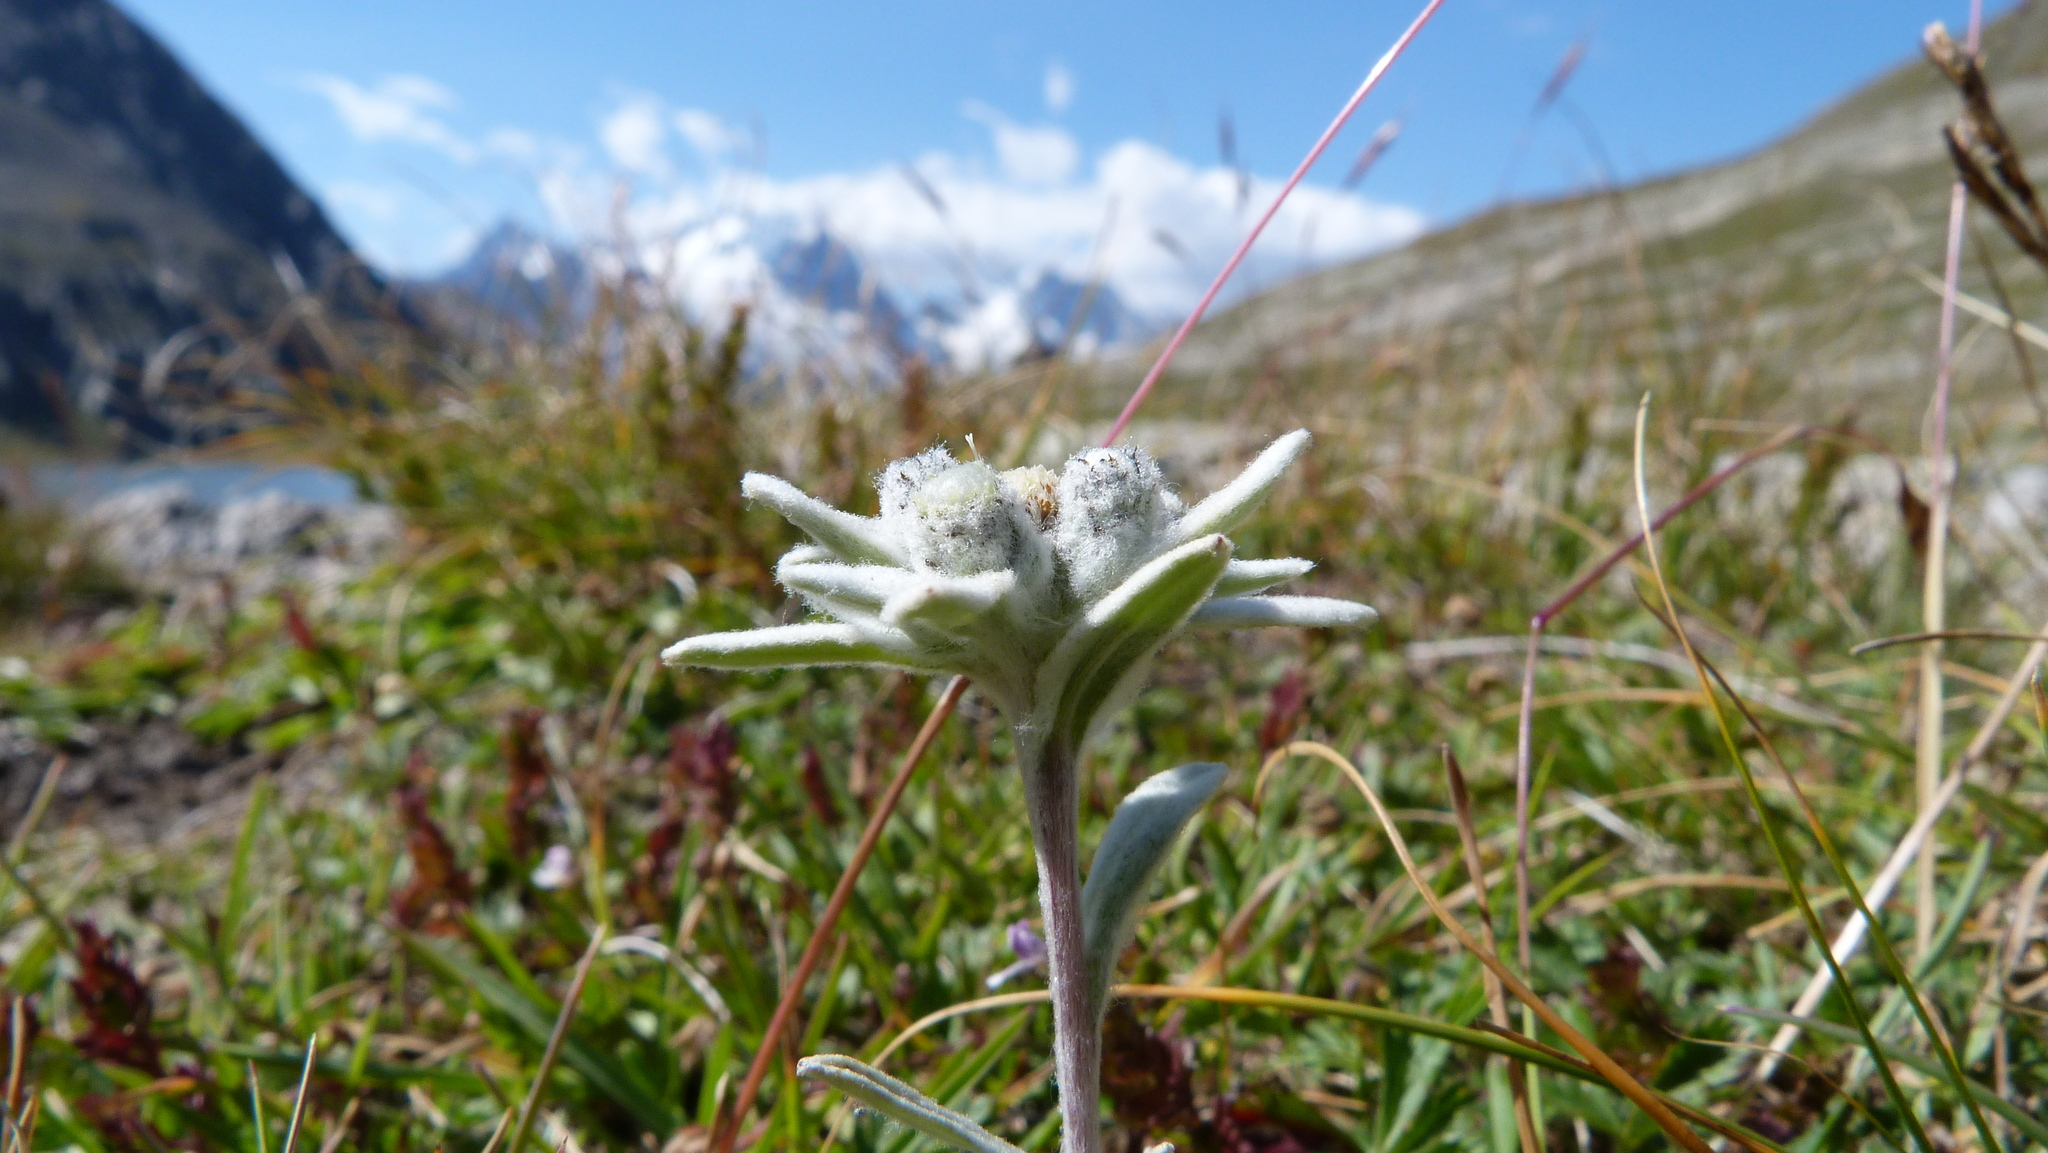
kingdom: Plantae
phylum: Tracheophyta
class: Magnoliopsida
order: Asterales
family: Asteraceae
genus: Leontopodium
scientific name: Leontopodium nivale
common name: Edelweiss
